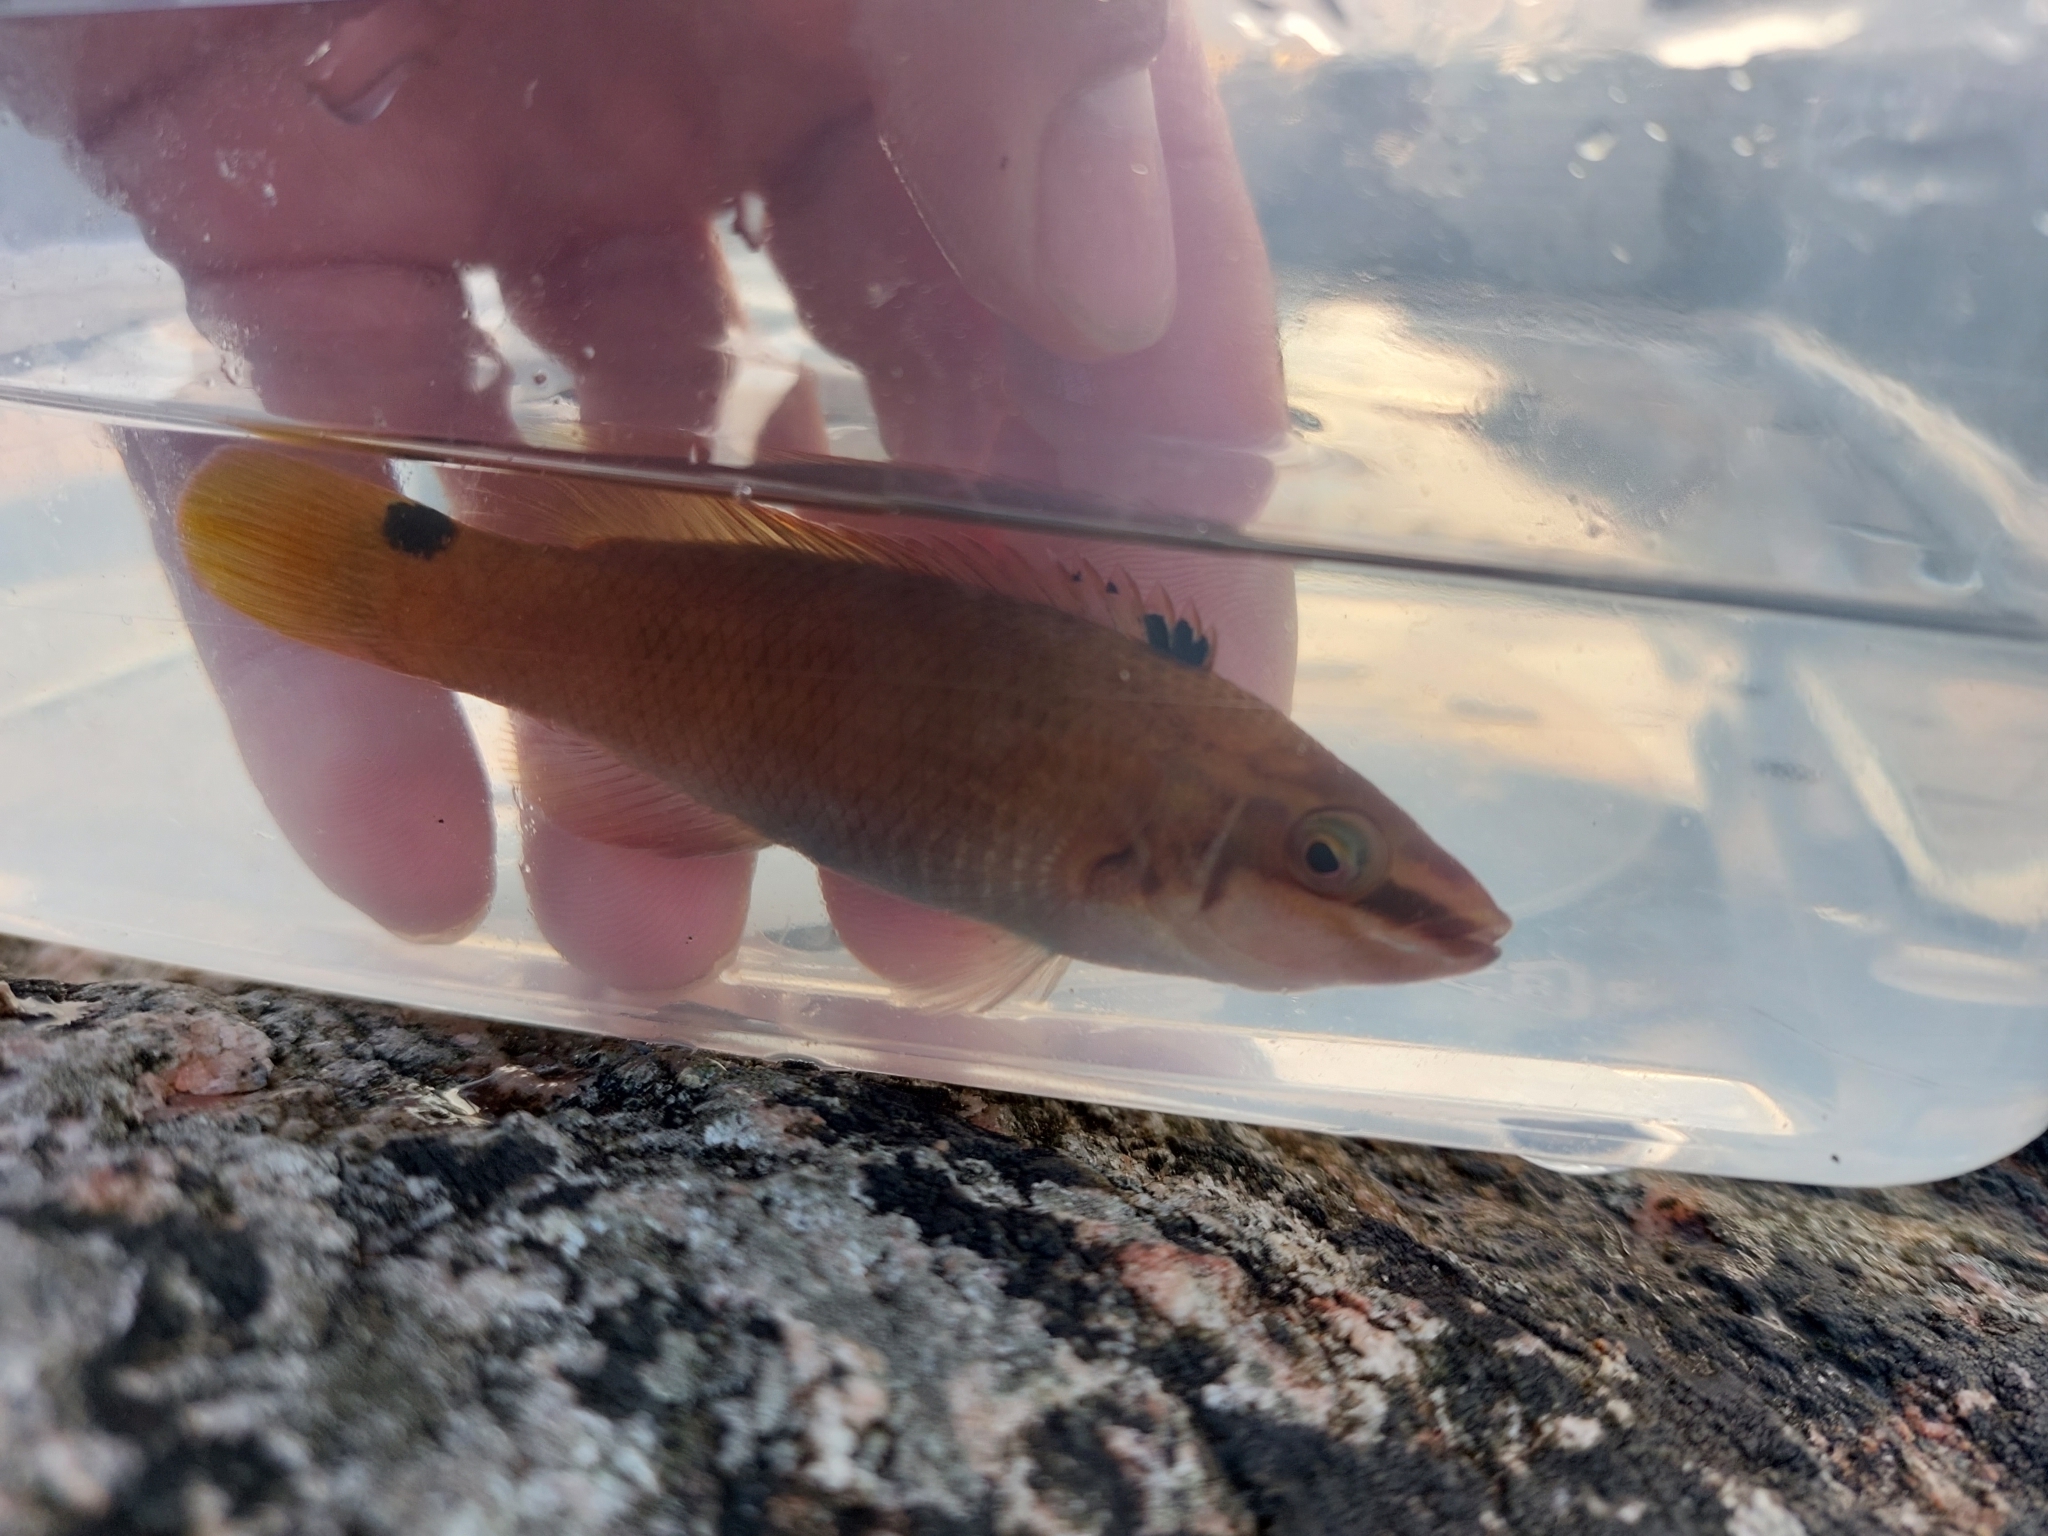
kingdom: Animalia
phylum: Chordata
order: Perciformes
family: Labridae
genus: Ctenolabrus
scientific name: Ctenolabrus rupestris
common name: Goldsinny
